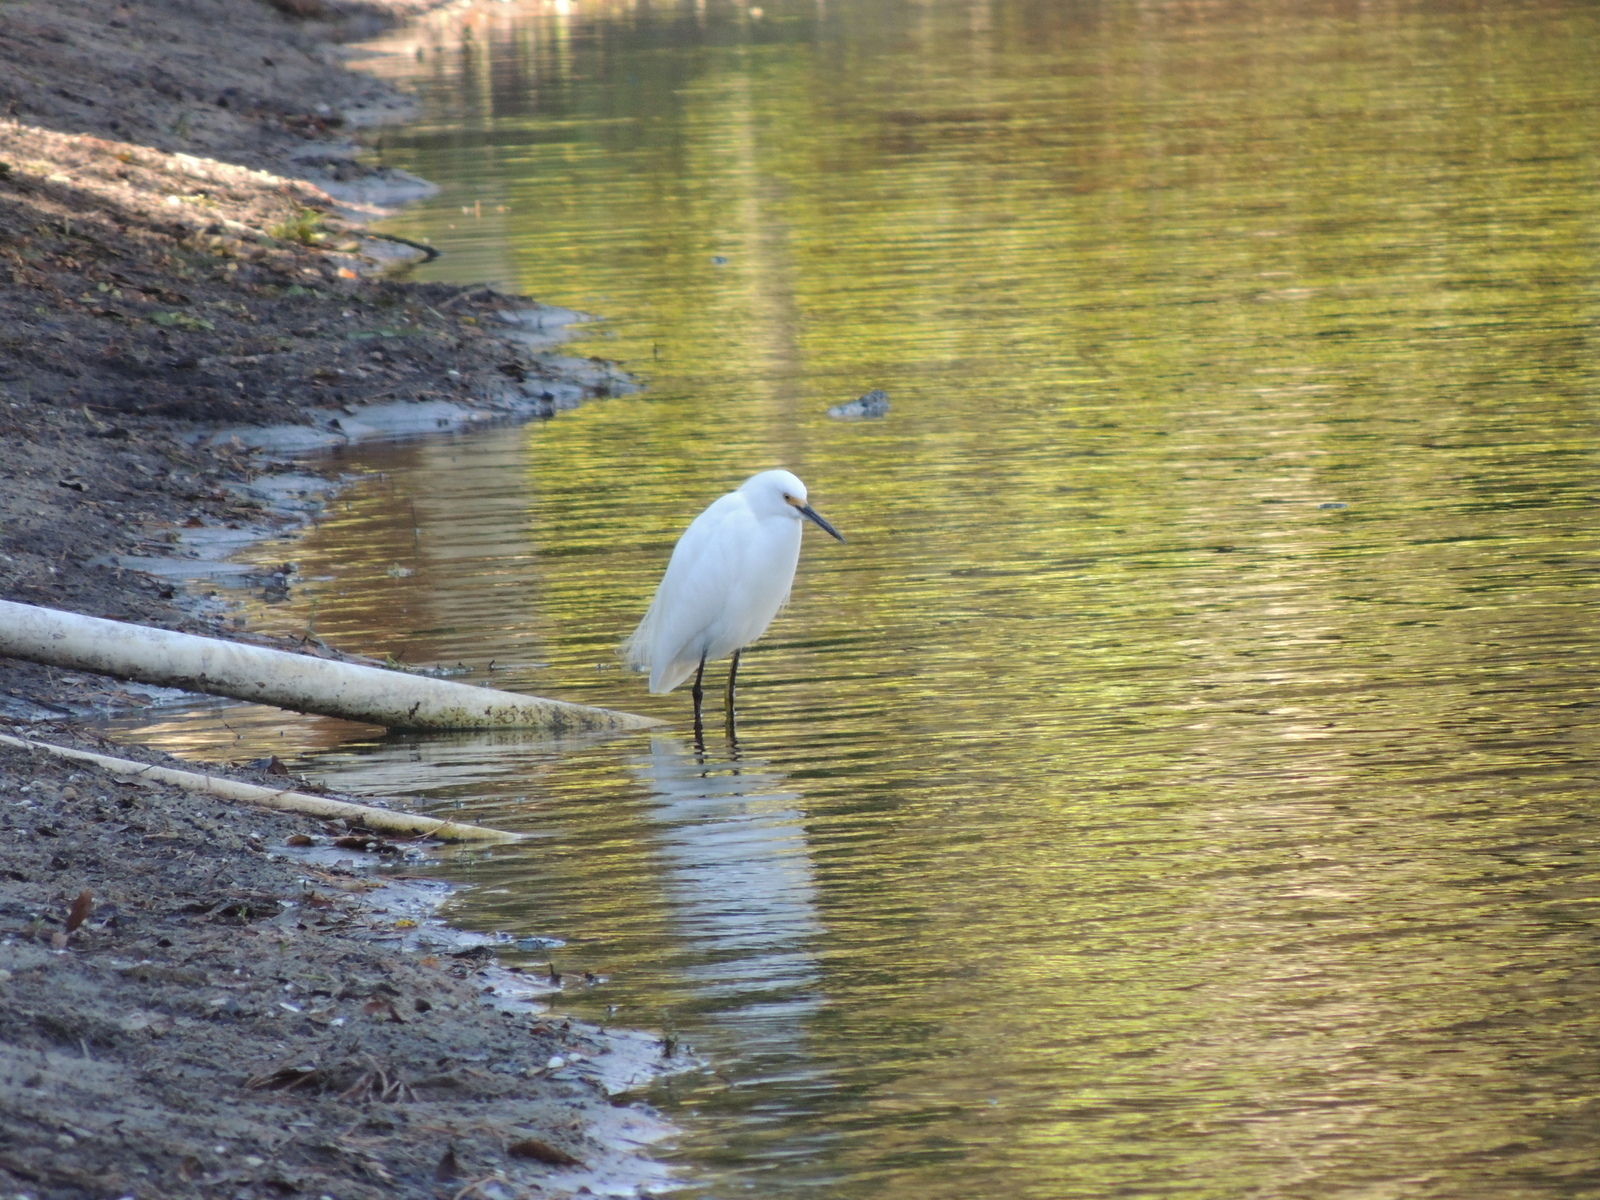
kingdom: Animalia
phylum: Chordata
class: Aves
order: Pelecaniformes
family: Ardeidae
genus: Egretta
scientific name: Egretta thula
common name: Snowy egret
